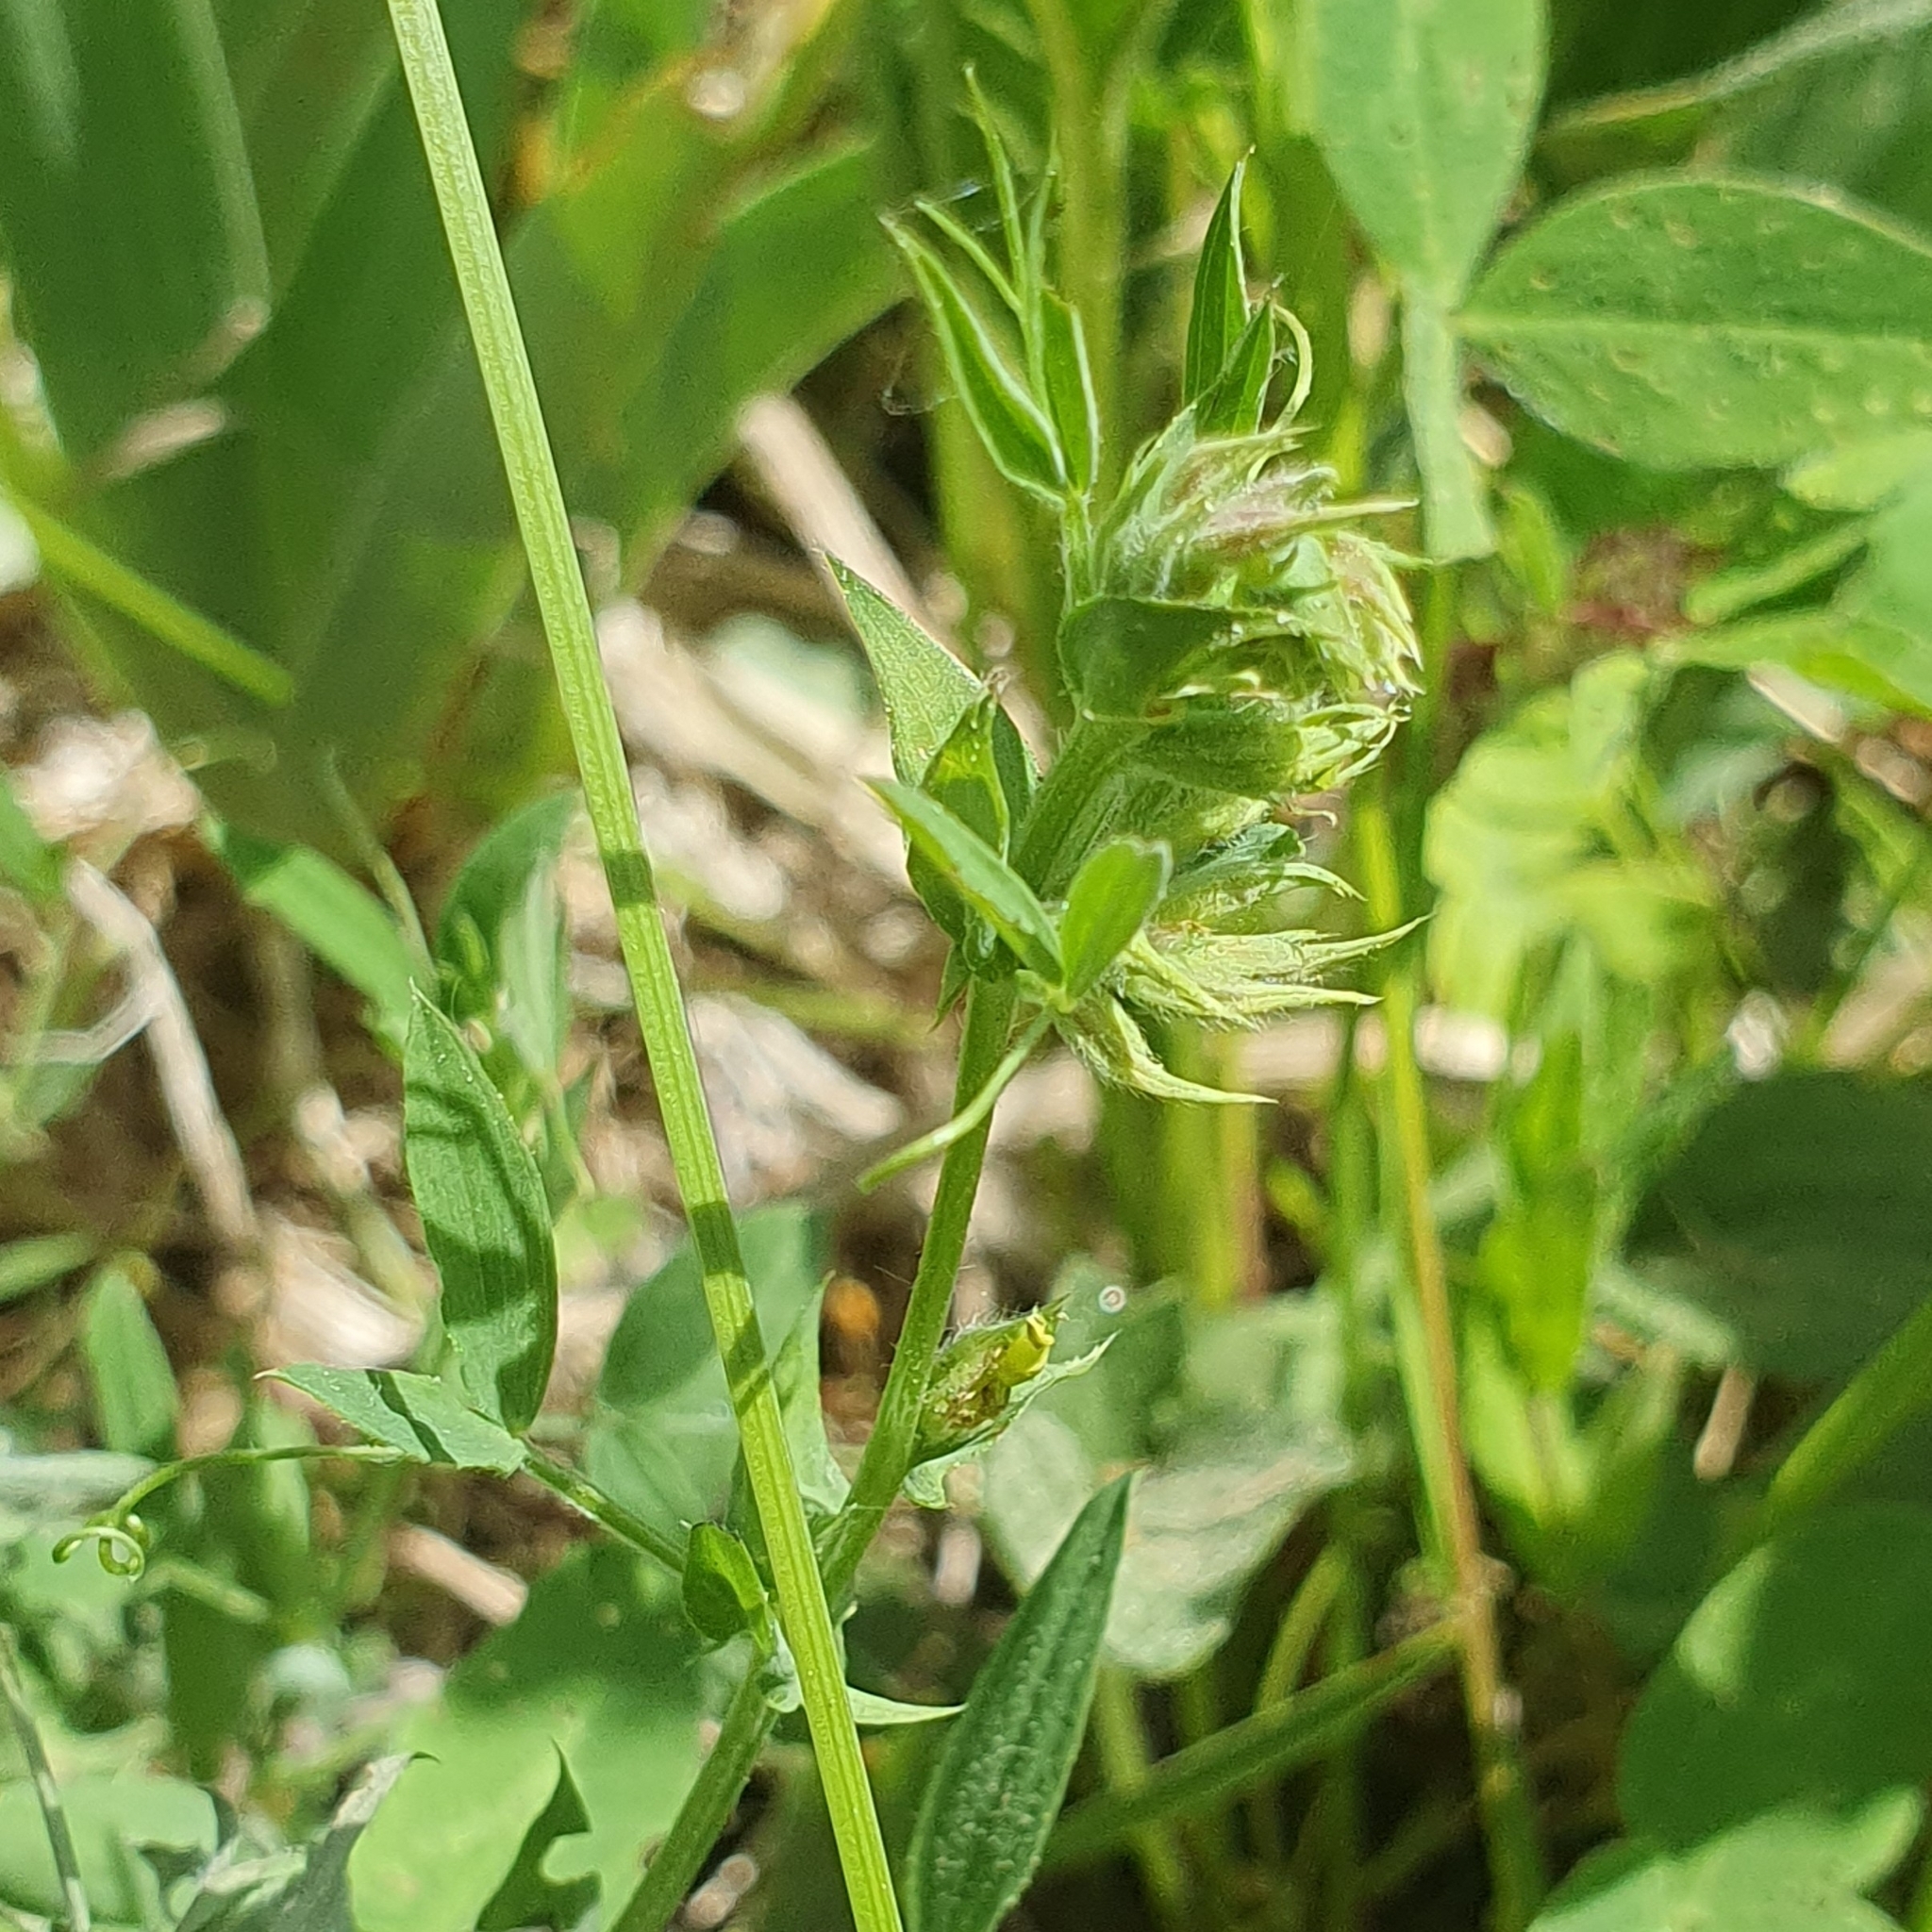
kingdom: Plantae
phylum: Tracheophyta
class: Magnoliopsida
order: Fabales
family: Fabaceae
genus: Lathyrus
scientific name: Lathyrus pratensis
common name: Meadow vetchling
